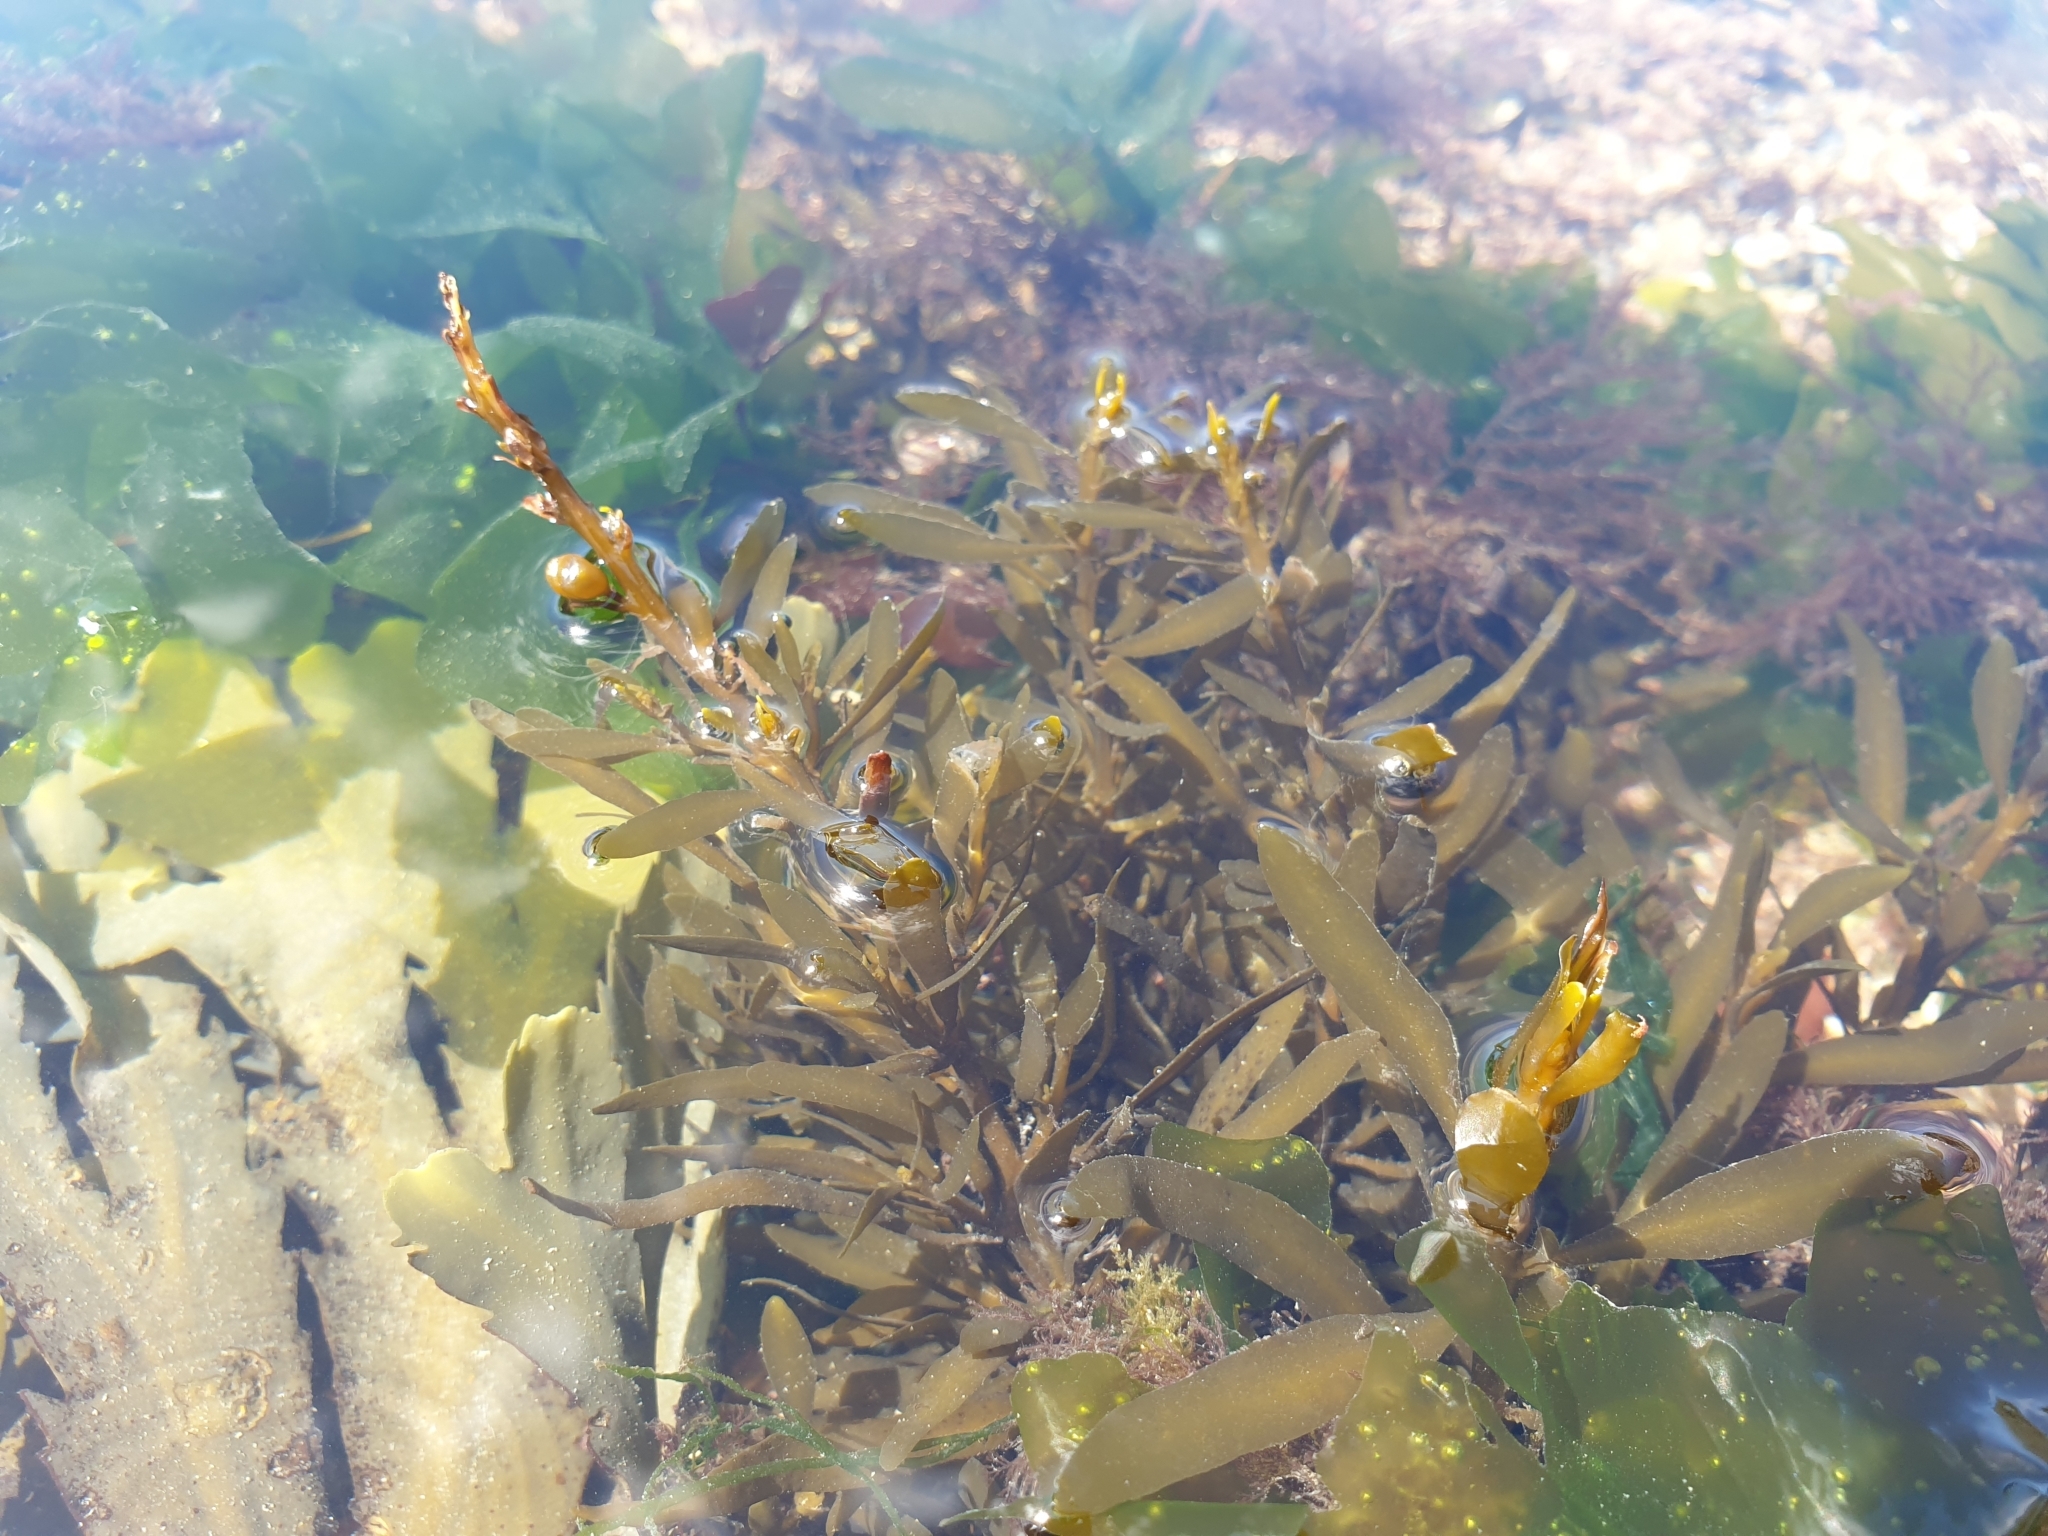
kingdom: Chromista
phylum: Ochrophyta
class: Phaeophyceae
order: Fucales
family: Sargassaceae
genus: Sargassum
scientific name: Sargassum muticum
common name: Japweed
